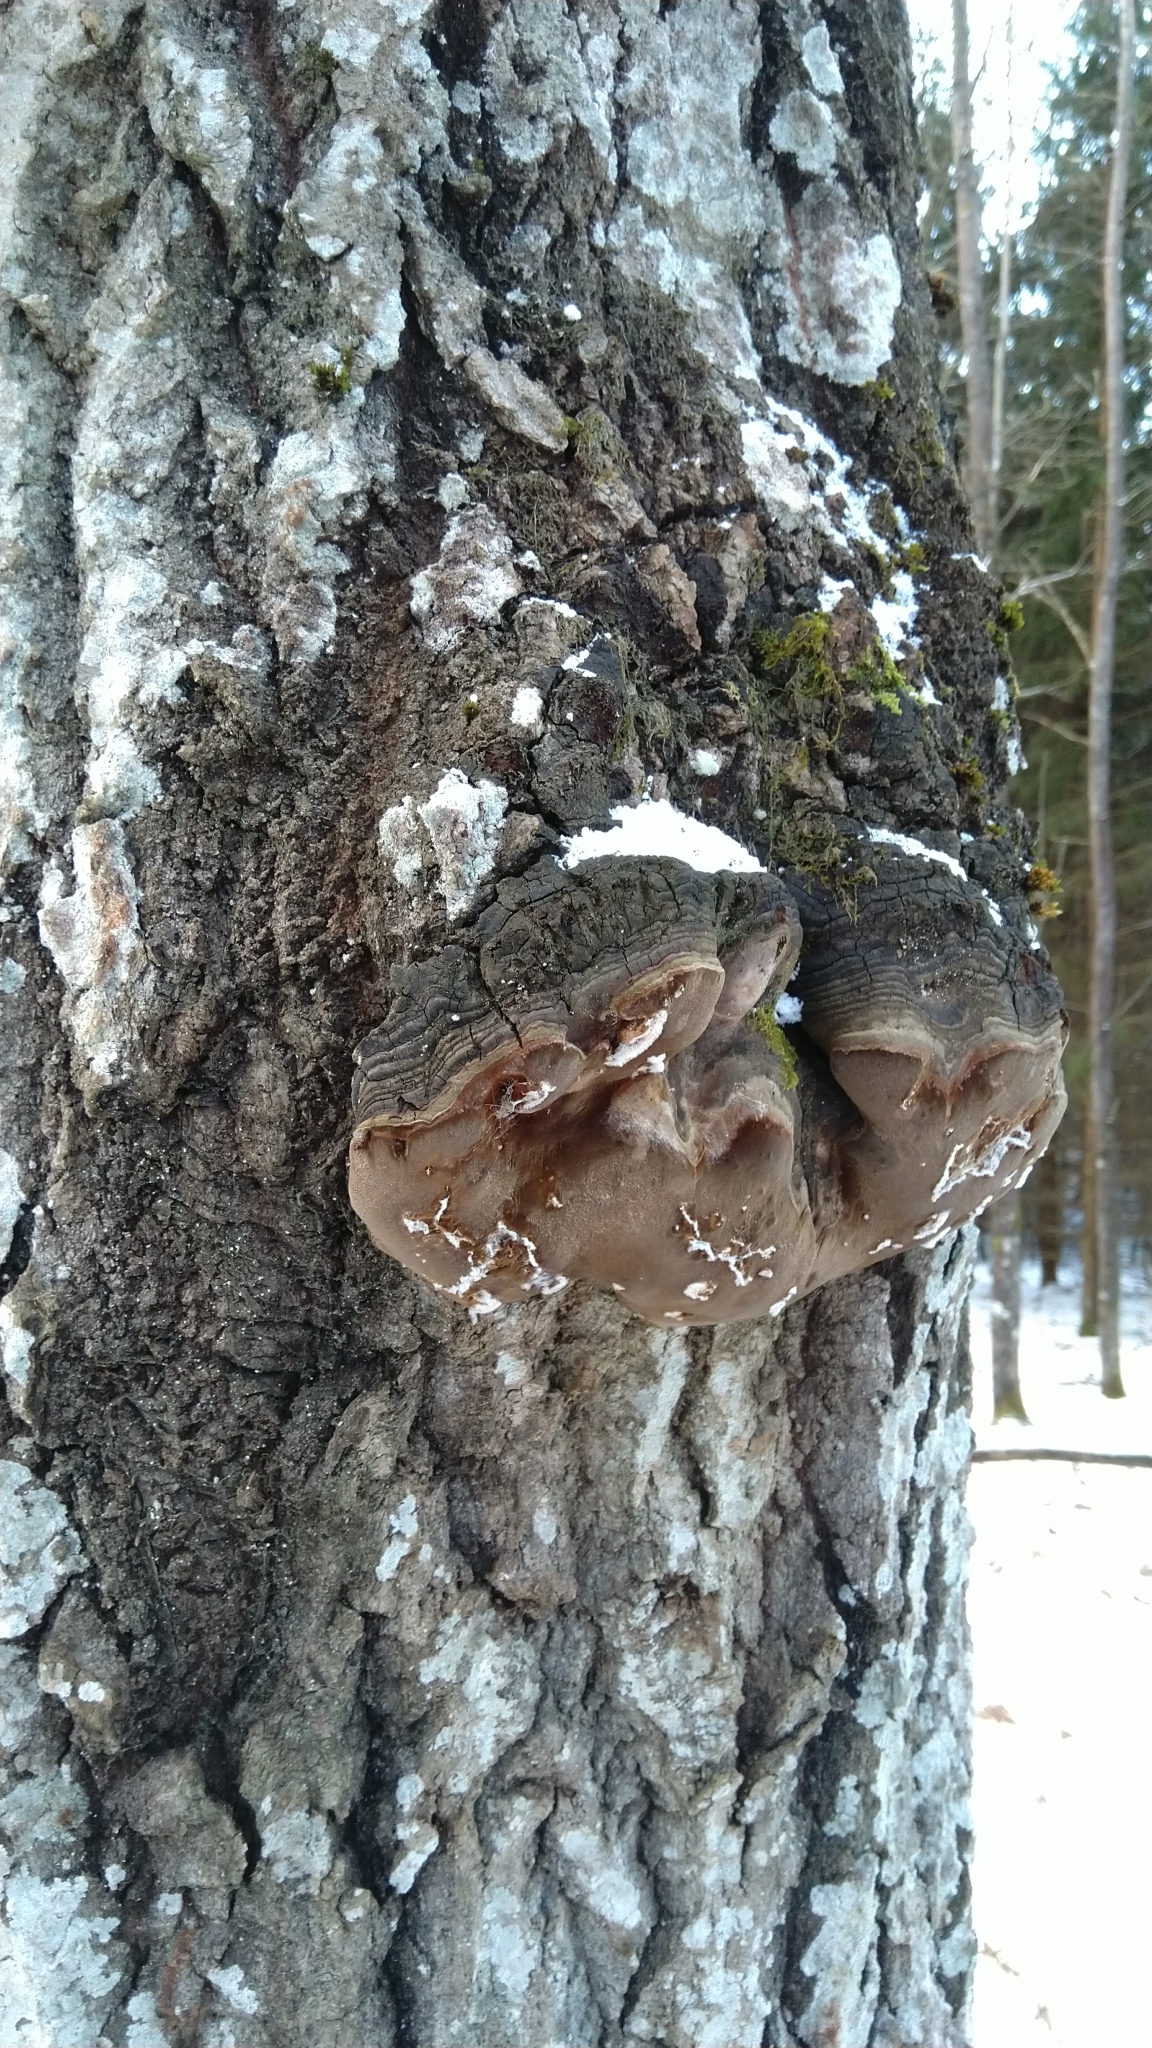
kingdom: Fungi
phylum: Basidiomycota
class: Agaricomycetes
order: Hymenochaetales
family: Hymenochaetaceae
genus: Phellinus
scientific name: Phellinus tremulae
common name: Aspen bracket
